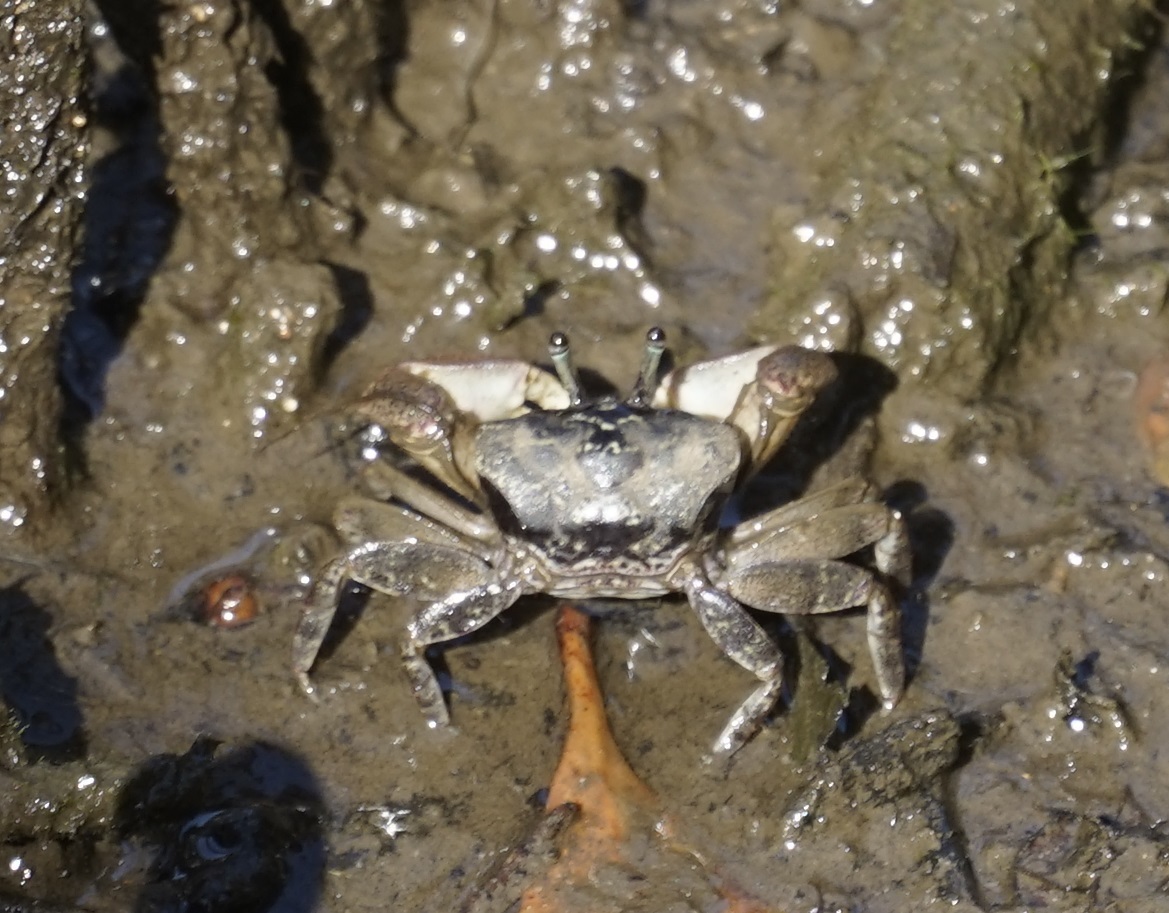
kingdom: Animalia
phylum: Arthropoda
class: Malacostraca
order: Decapoda
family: Heloeciidae
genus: Heloecius
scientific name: Heloecius cordiformis
